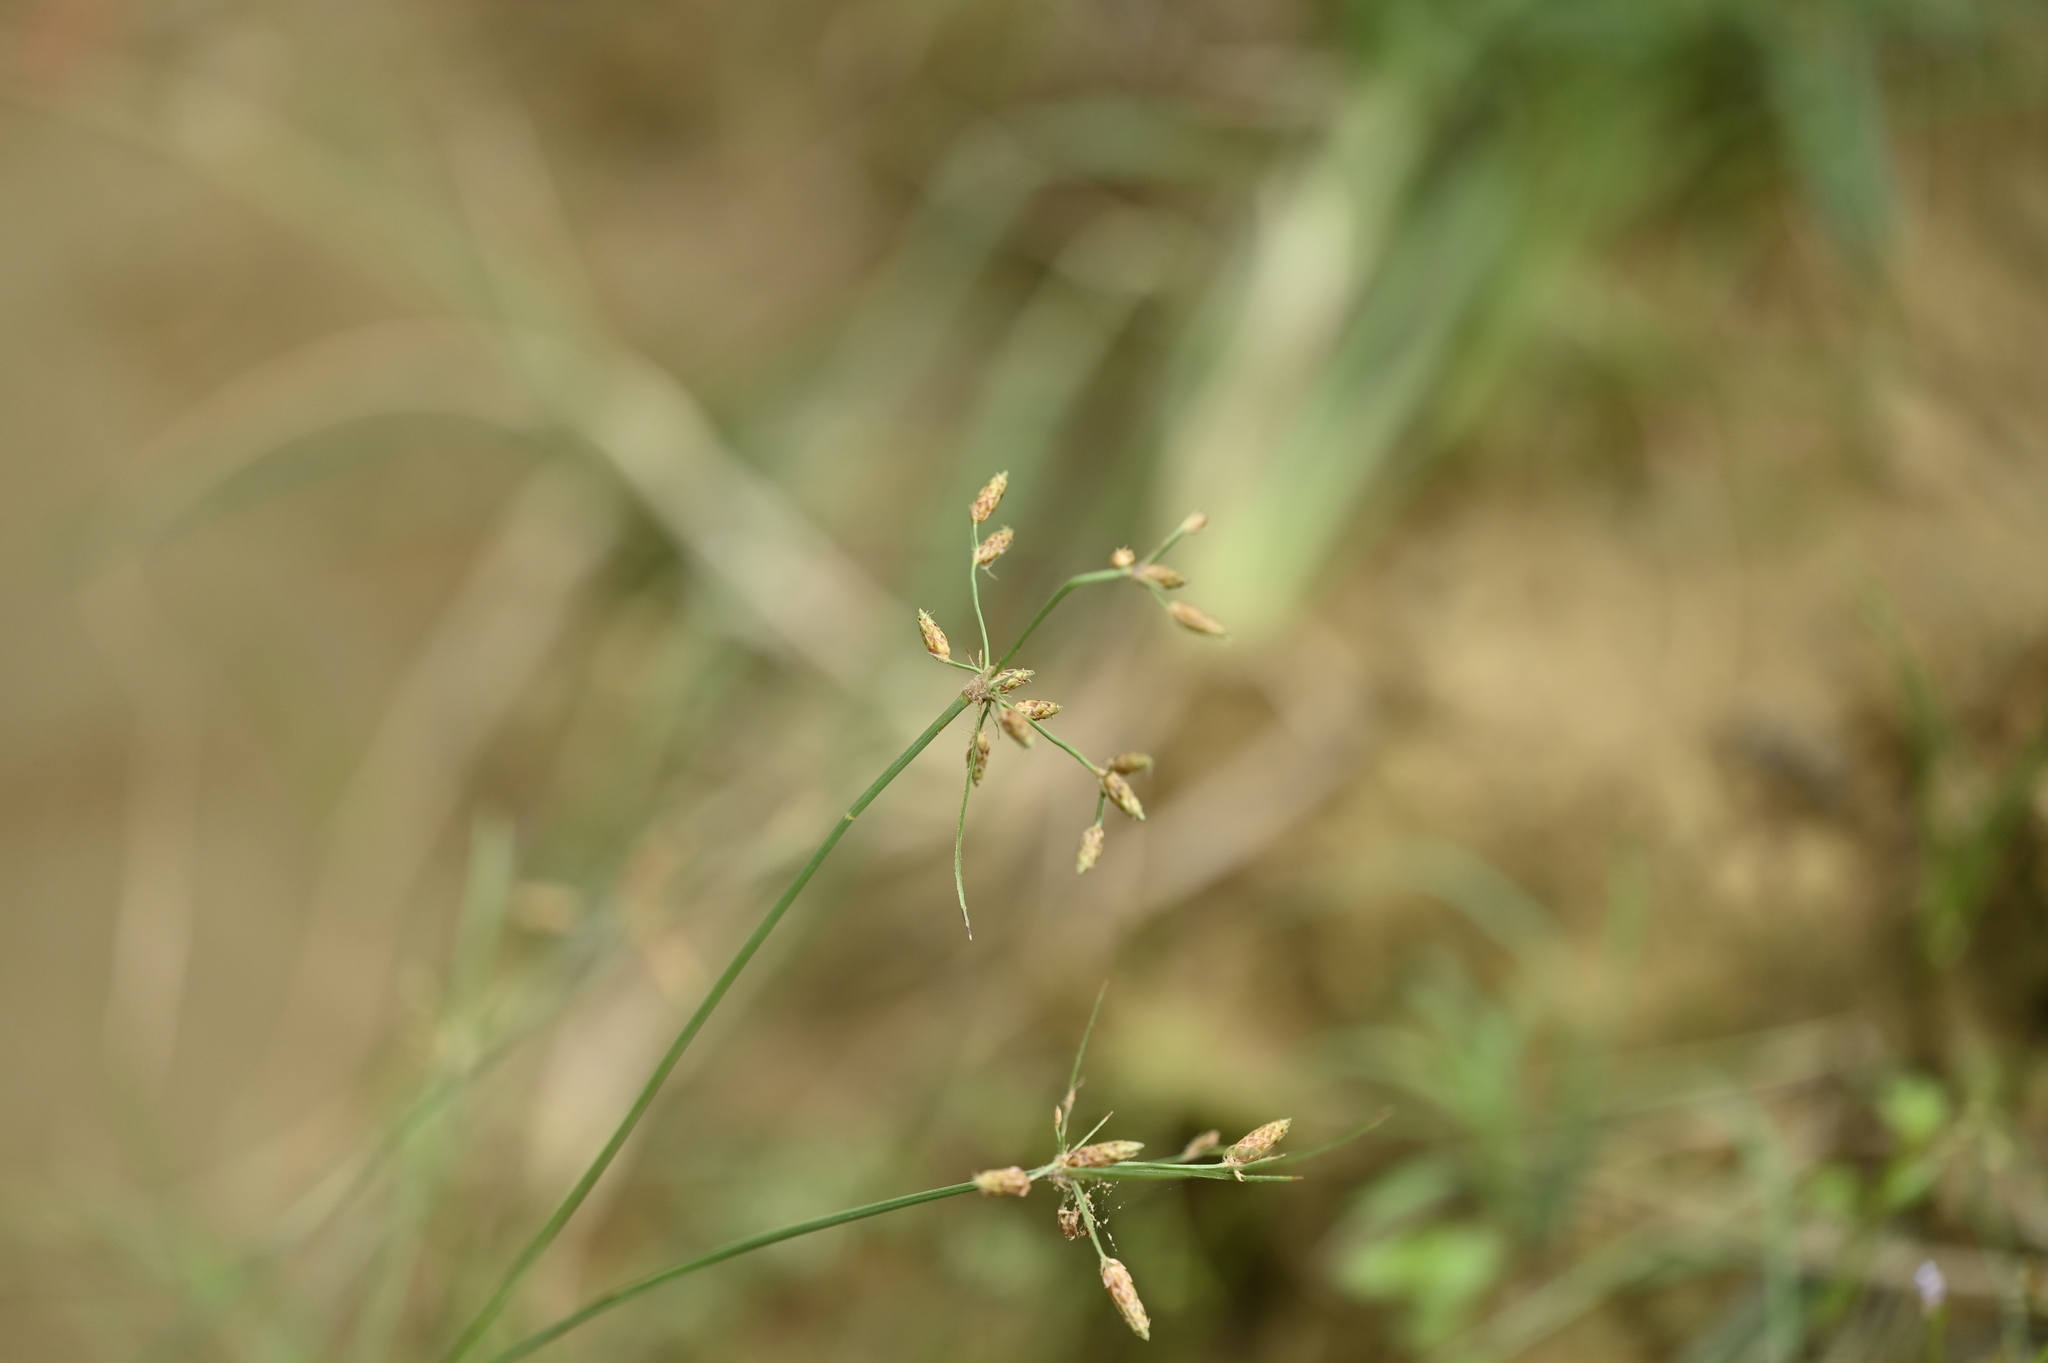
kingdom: Plantae
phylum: Tracheophyta
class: Liliopsida
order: Poales
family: Cyperaceae
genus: Fimbristylis
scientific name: Fimbristylis dichotoma
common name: Forked fimbry
